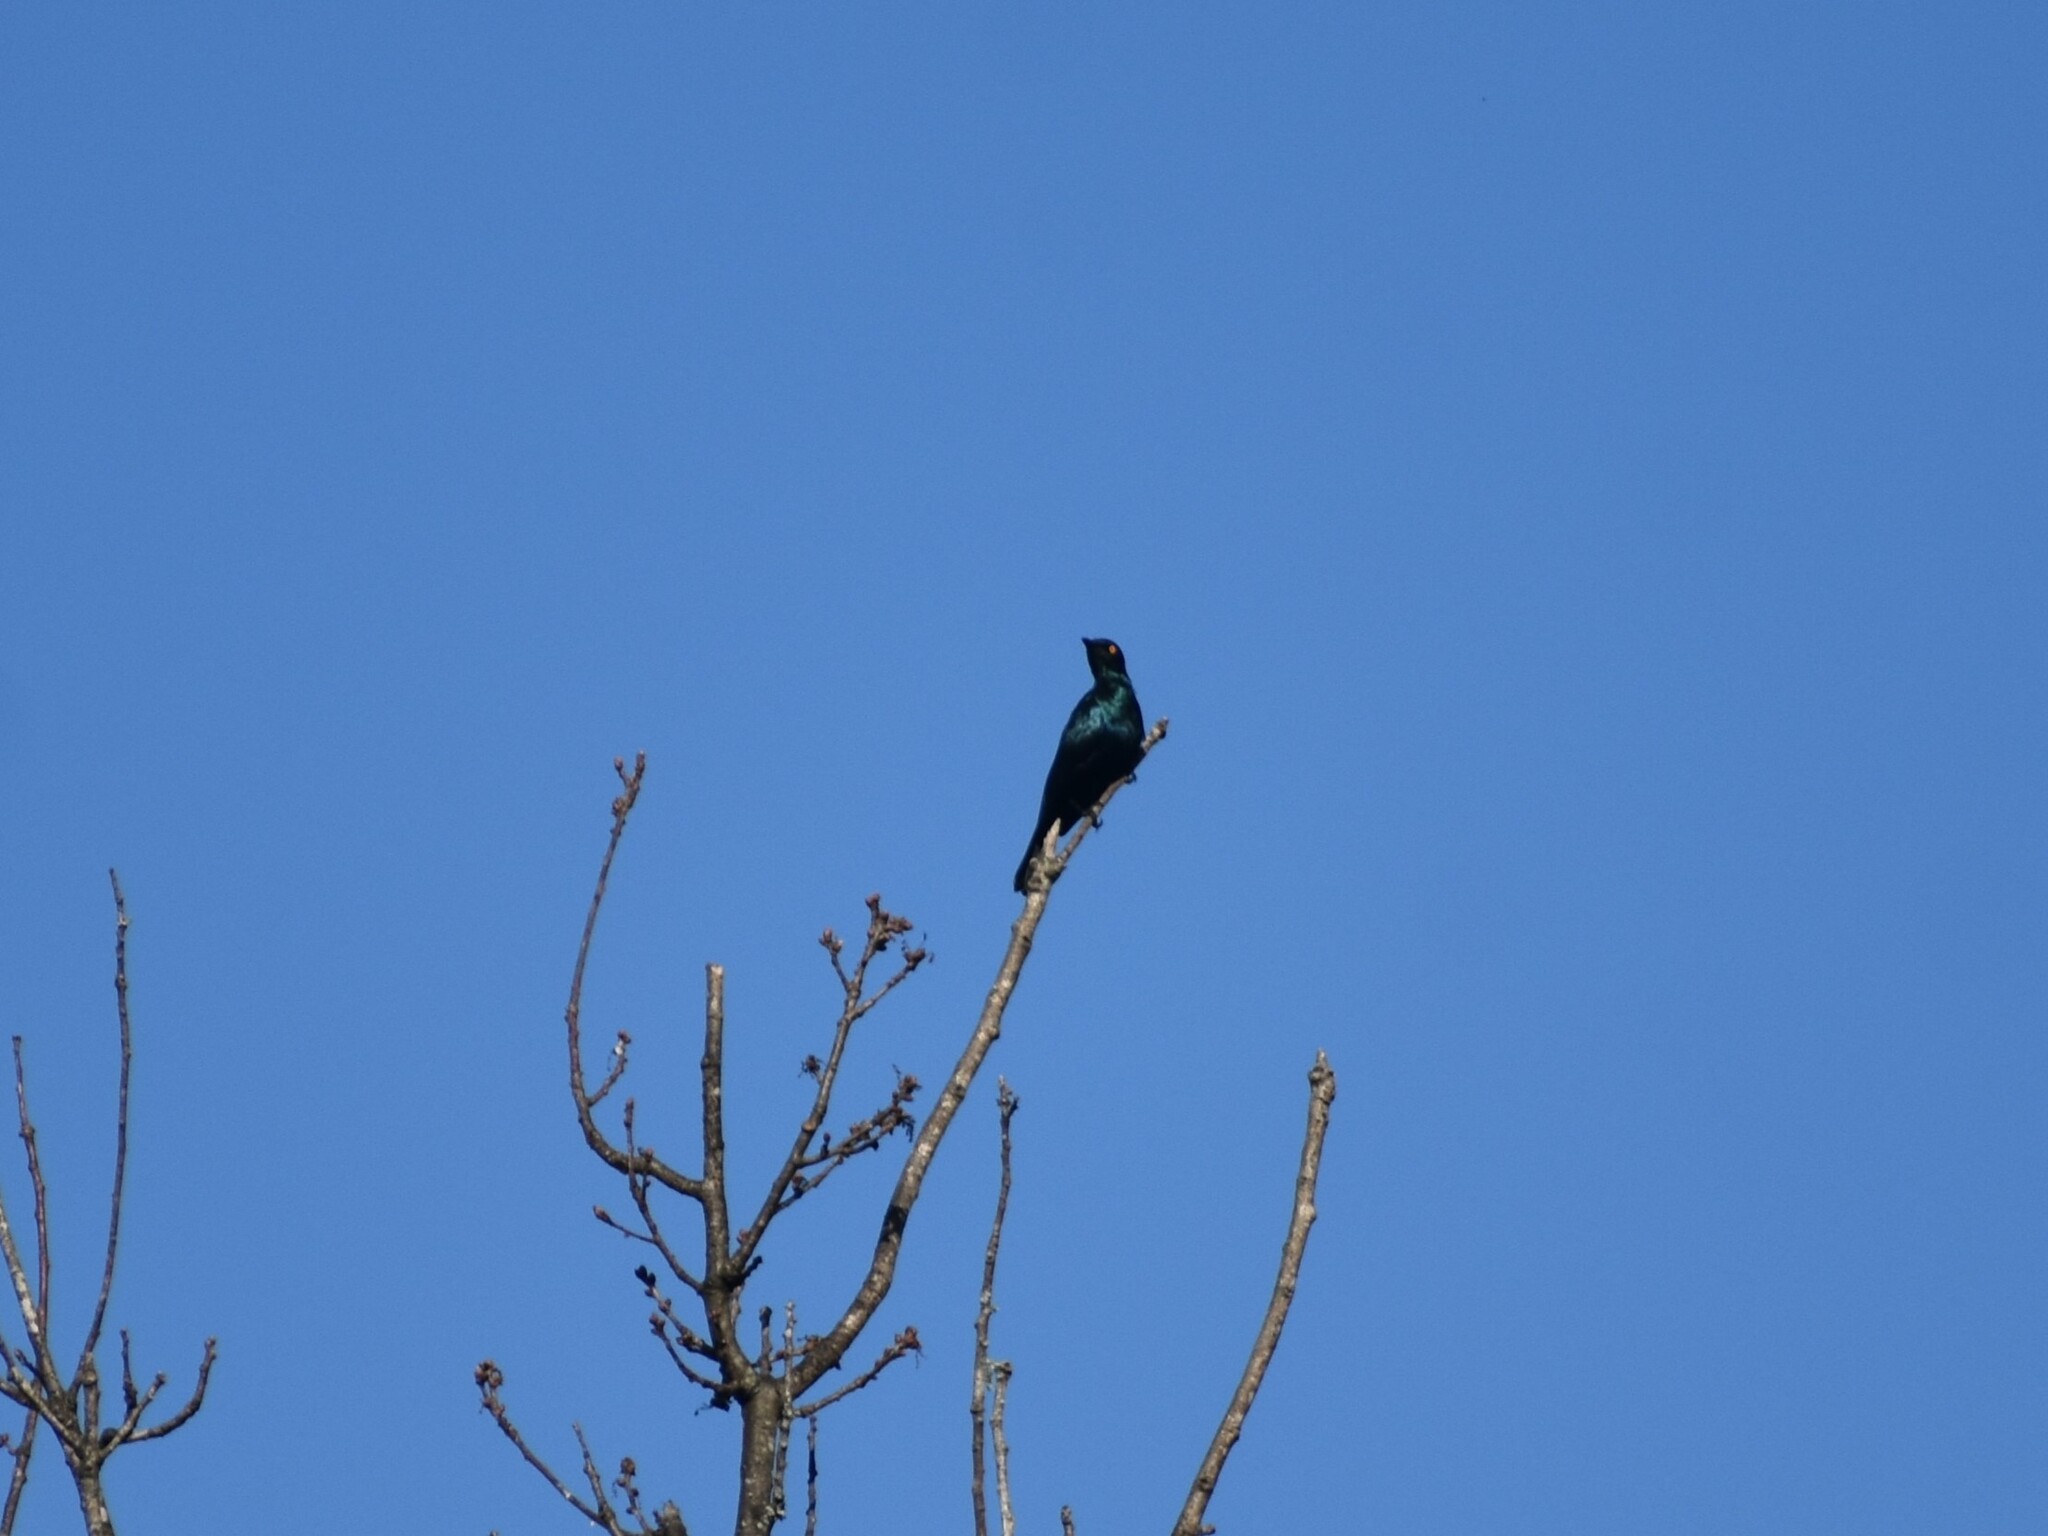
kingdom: Animalia
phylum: Chordata
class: Aves
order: Passeriformes
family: Sturnidae
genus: Notopholia
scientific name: Notopholia corrusca
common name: Black-bellied starling
